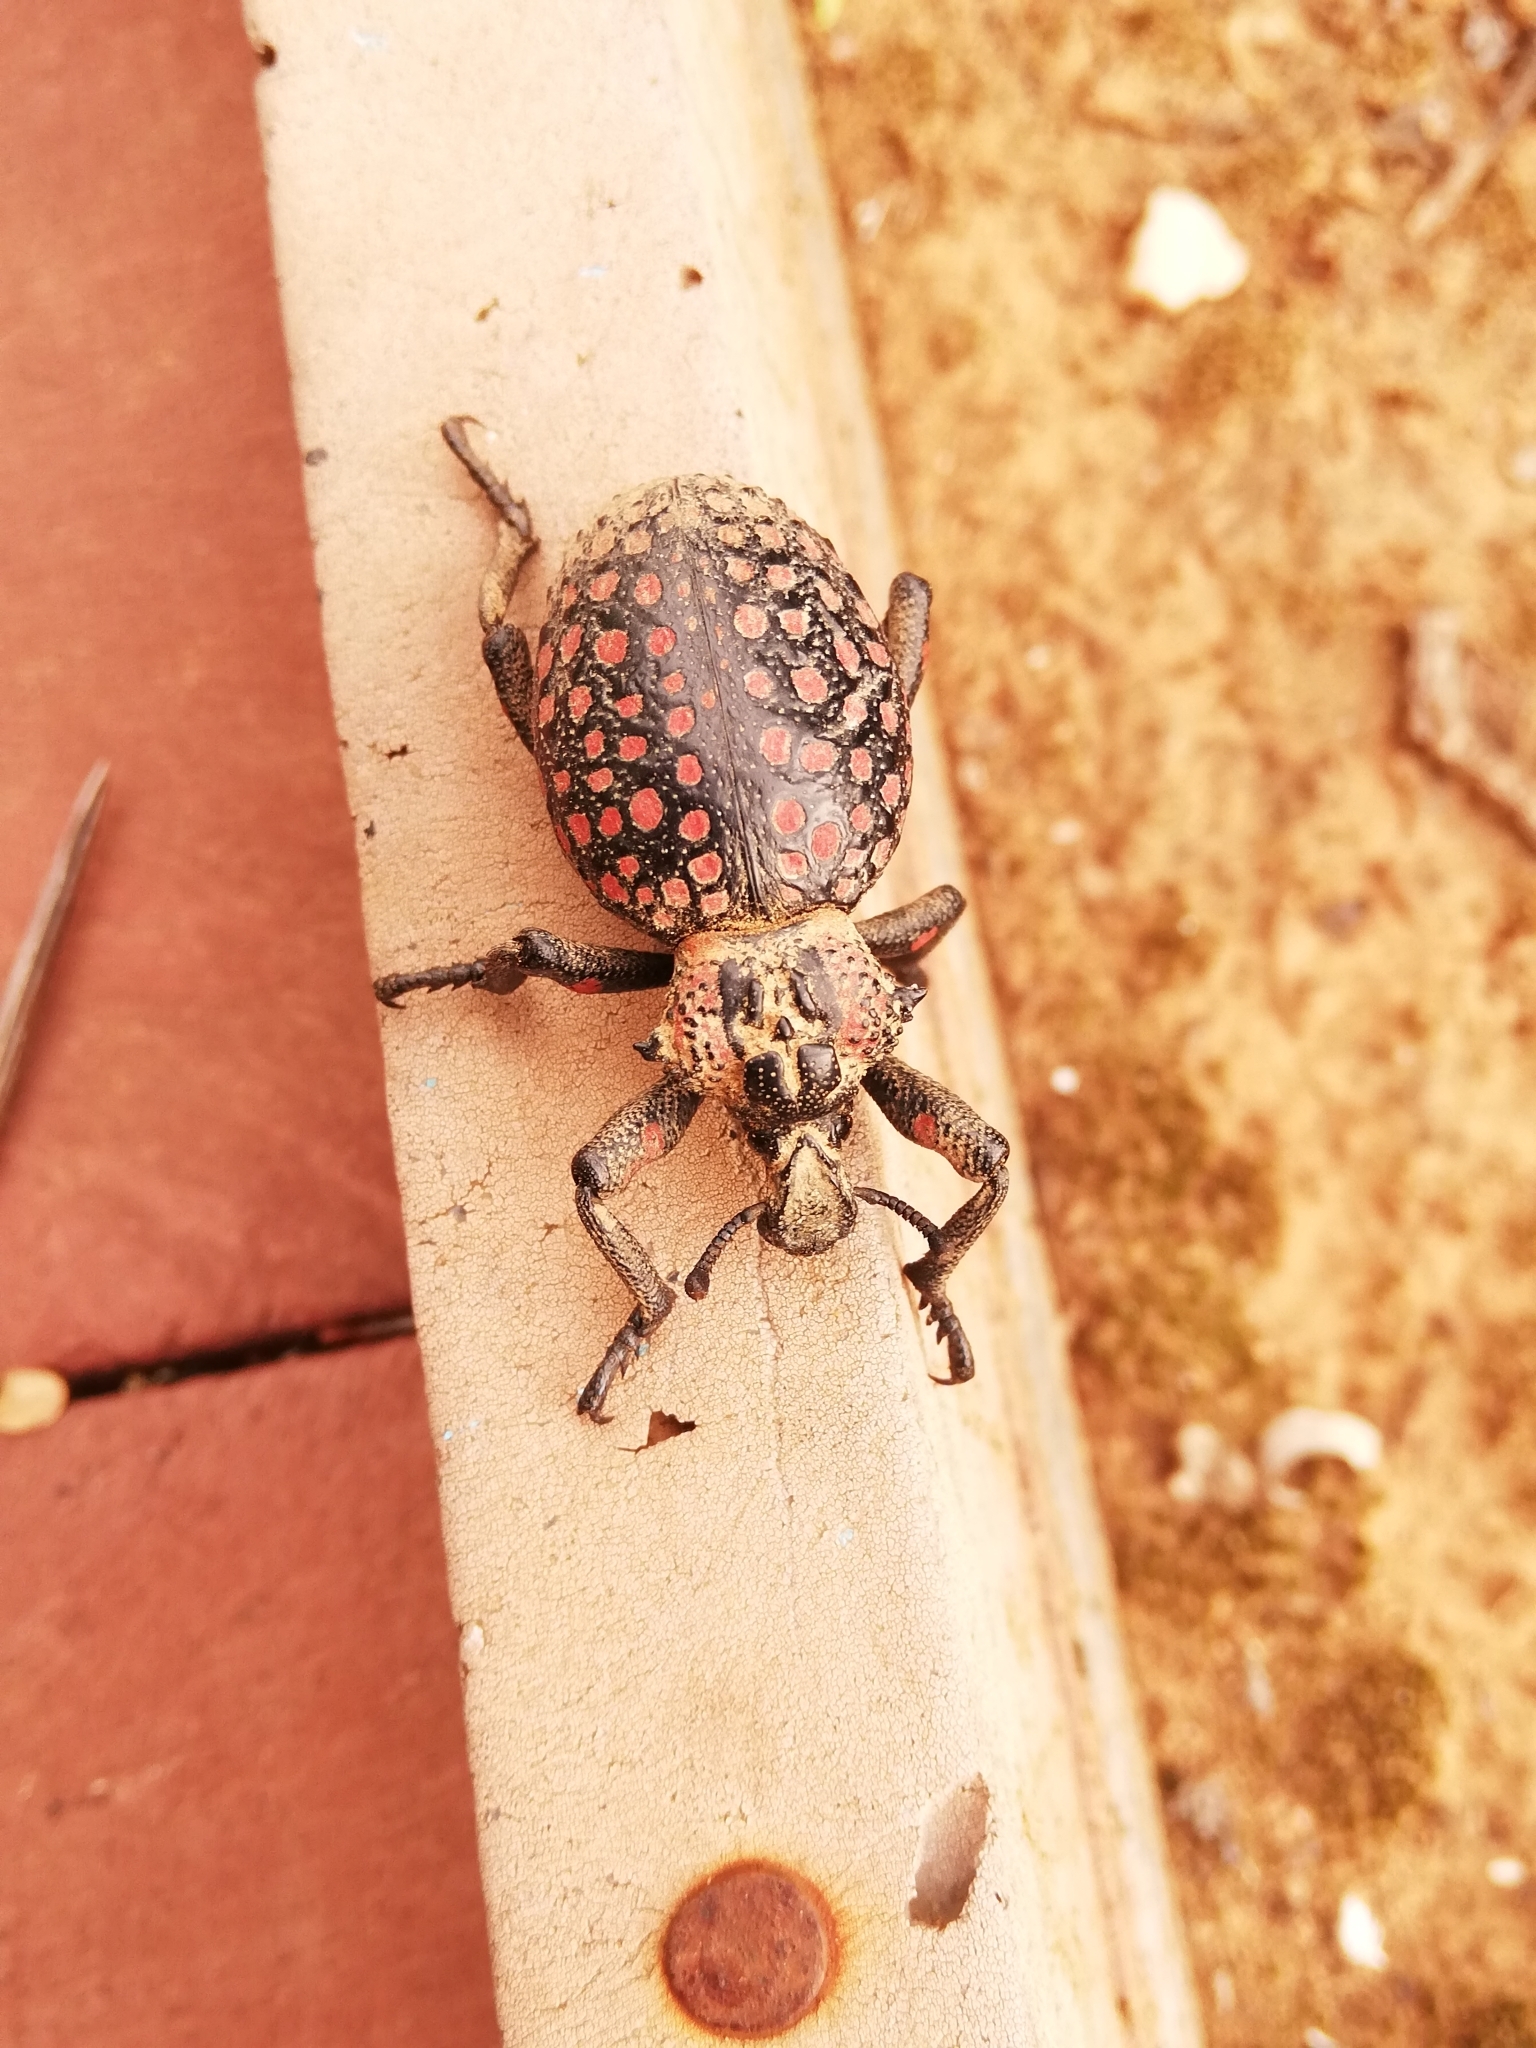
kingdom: Animalia
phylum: Arthropoda
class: Insecta
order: Coleoptera
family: Brachyceridae
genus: Brachycerus
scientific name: Brachycerus ornatus
